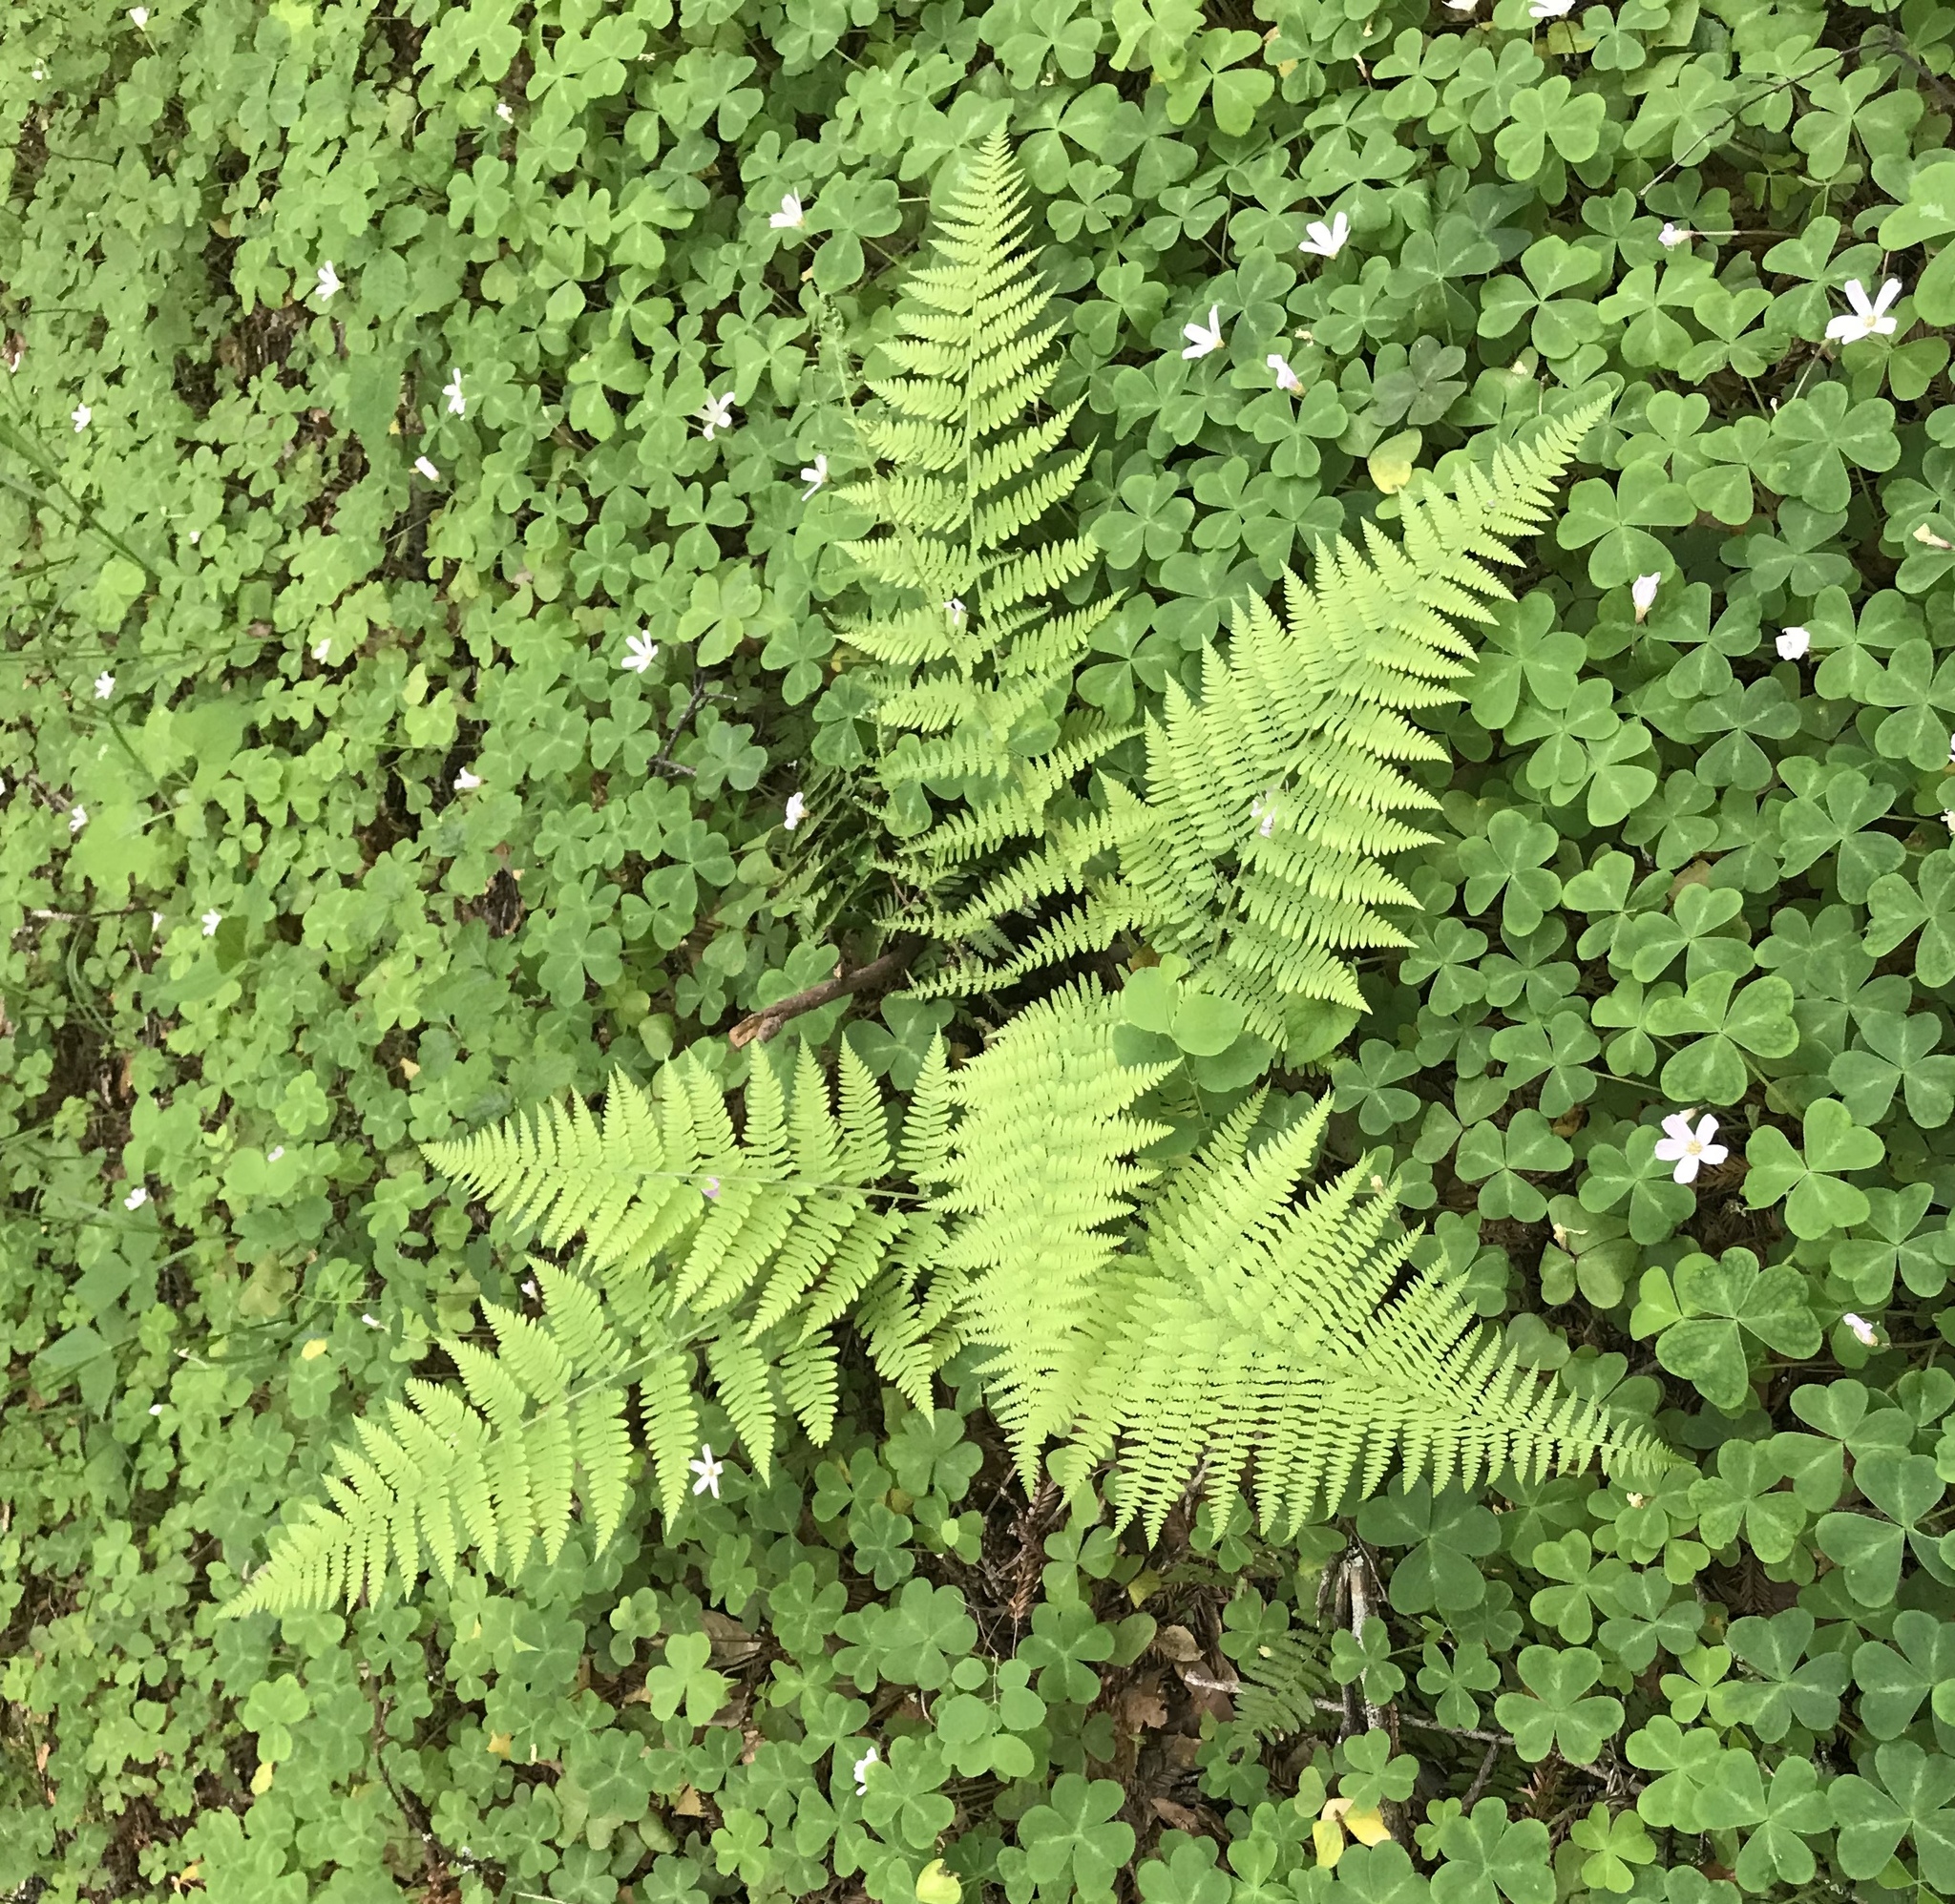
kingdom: Plantae
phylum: Tracheophyta
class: Polypodiopsida
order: Polypodiales
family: Dryopteridaceae
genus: Dryopteris
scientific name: Dryopteris arguta
